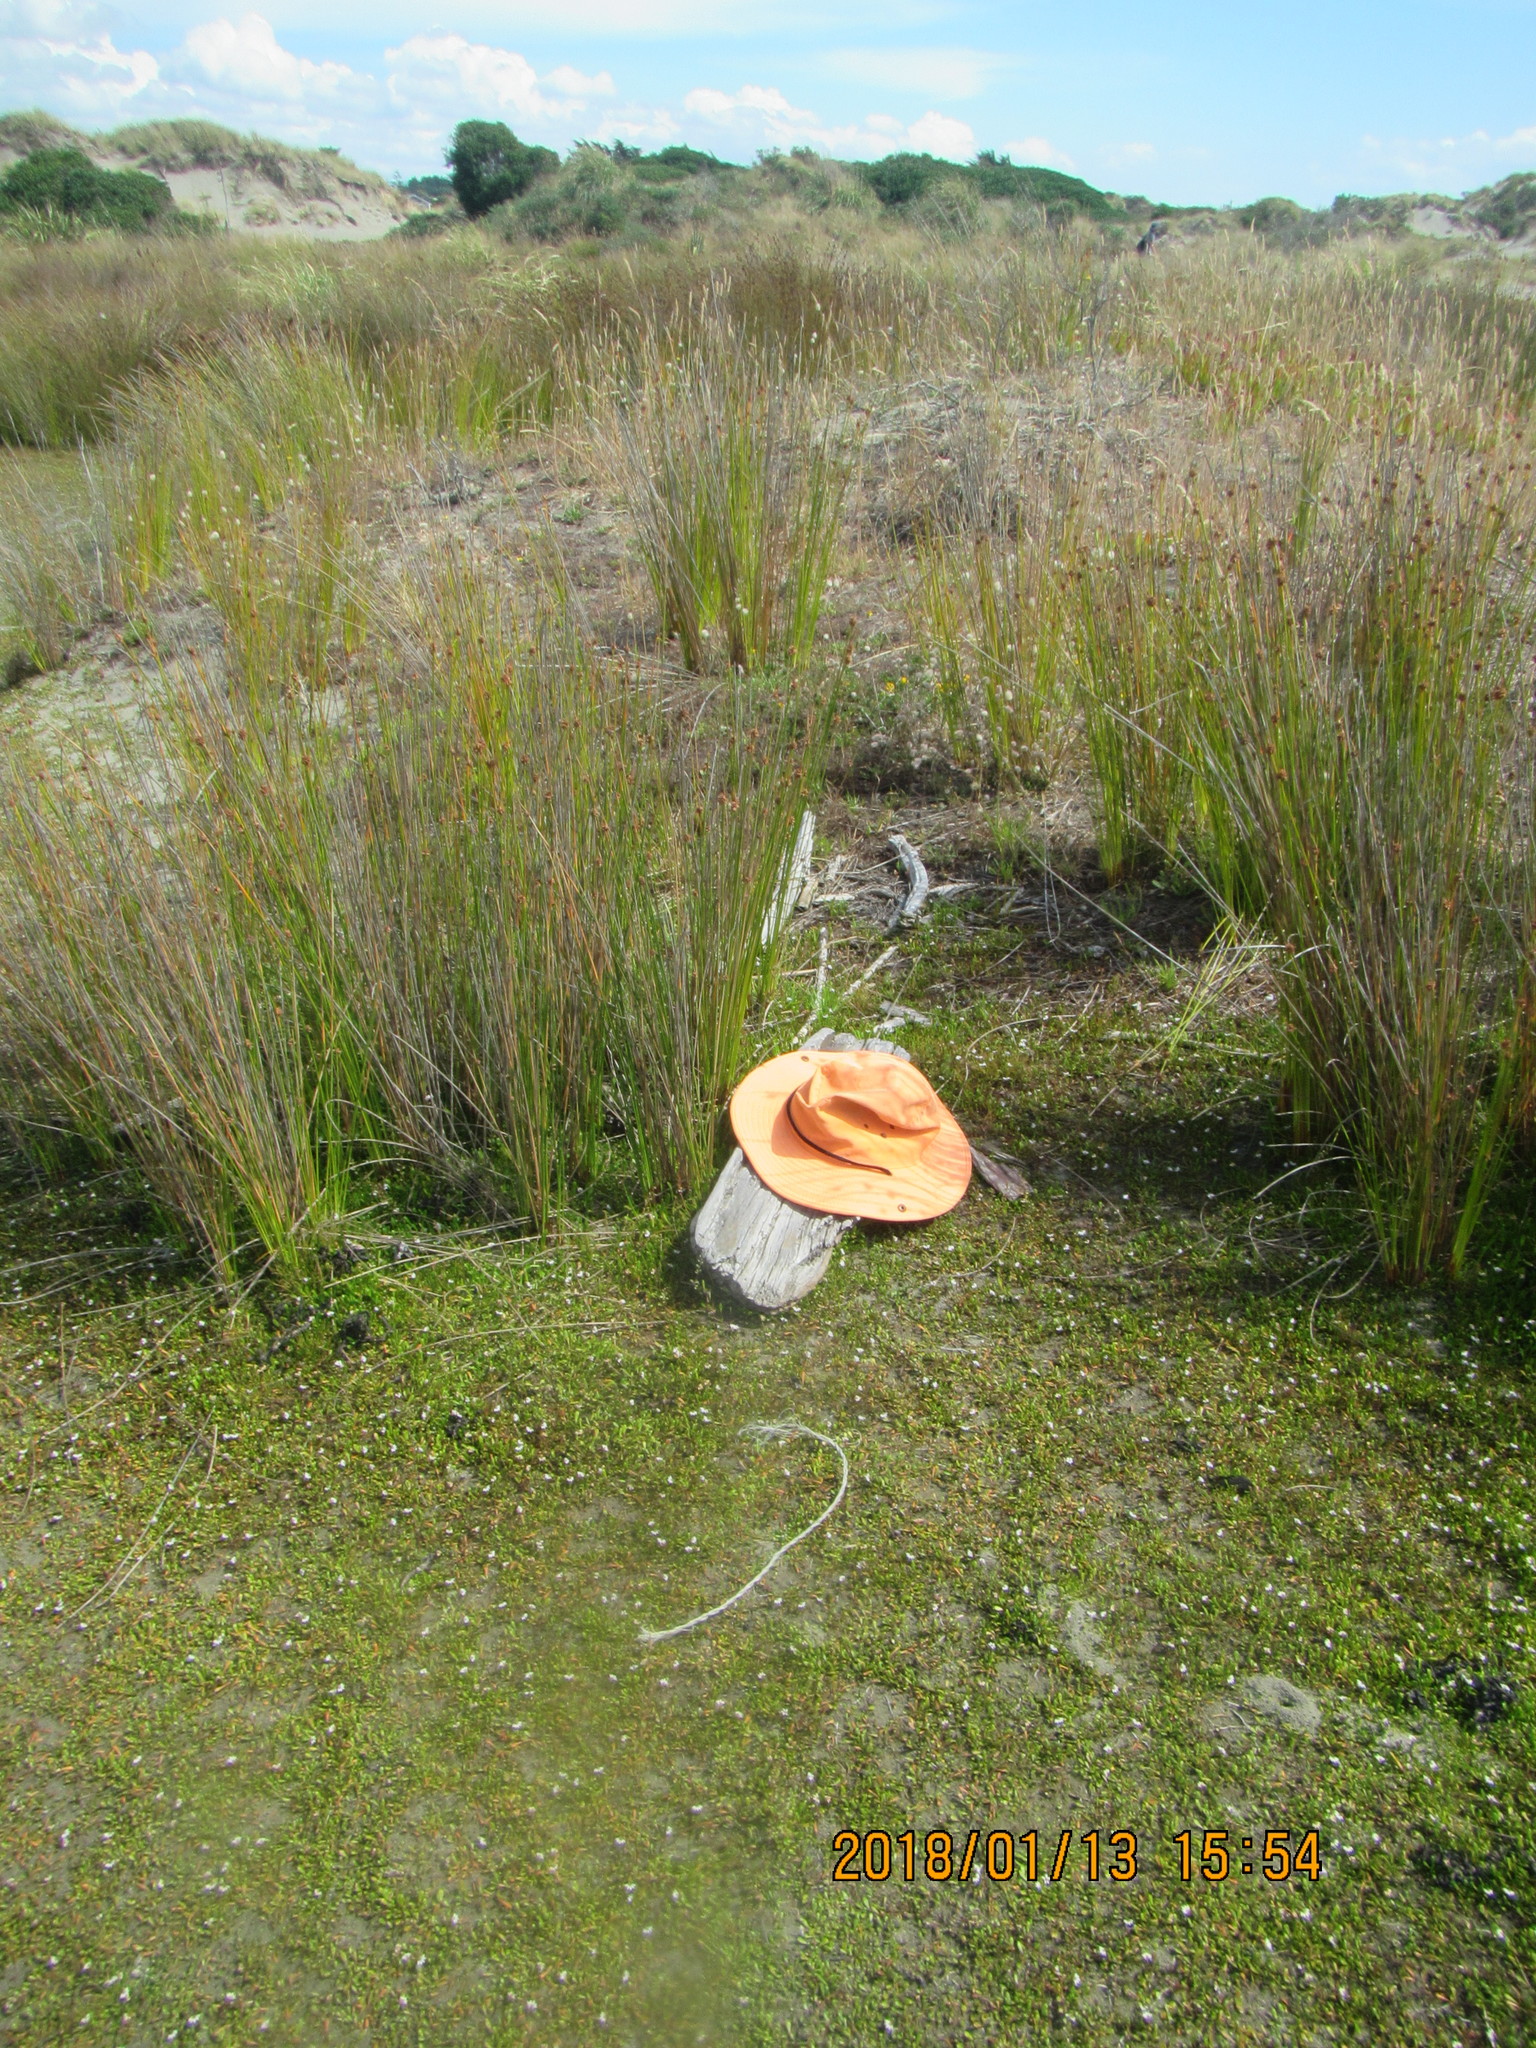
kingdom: Plantae
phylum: Tracheophyta
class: Magnoliopsida
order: Asterales
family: Goodeniaceae
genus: Goodenia
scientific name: Goodenia radicans
